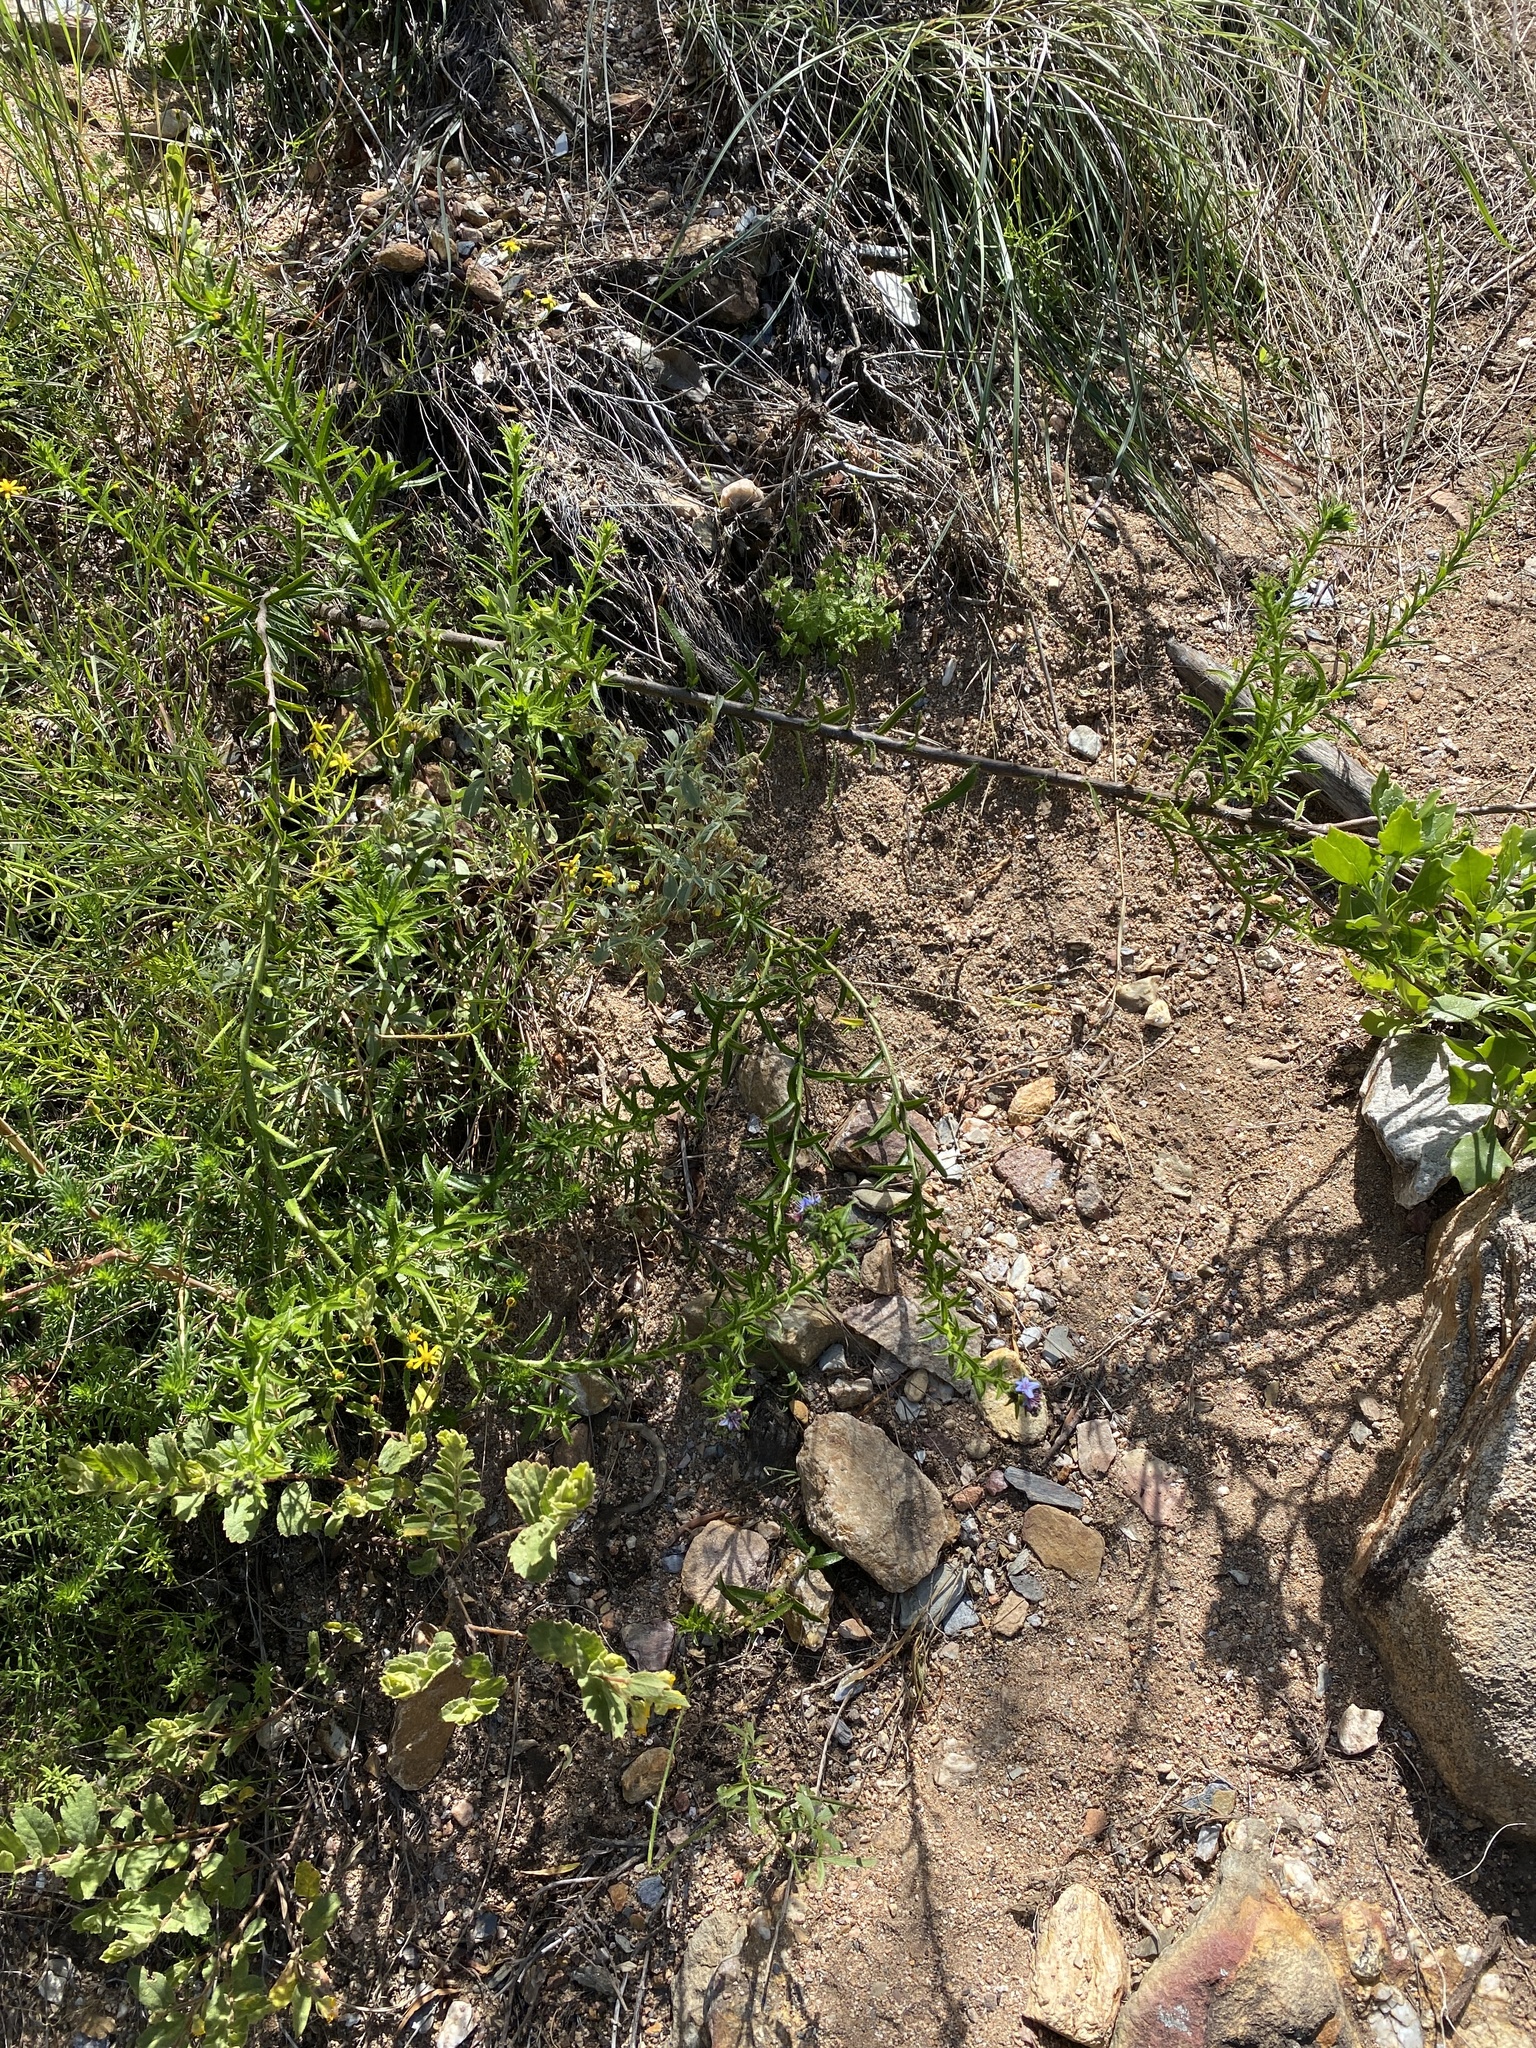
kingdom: Plantae
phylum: Tracheophyta
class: Magnoliopsida
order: Boraginales
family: Boraginaceae
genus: Lobostemon
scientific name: Lobostemon paniculatus
